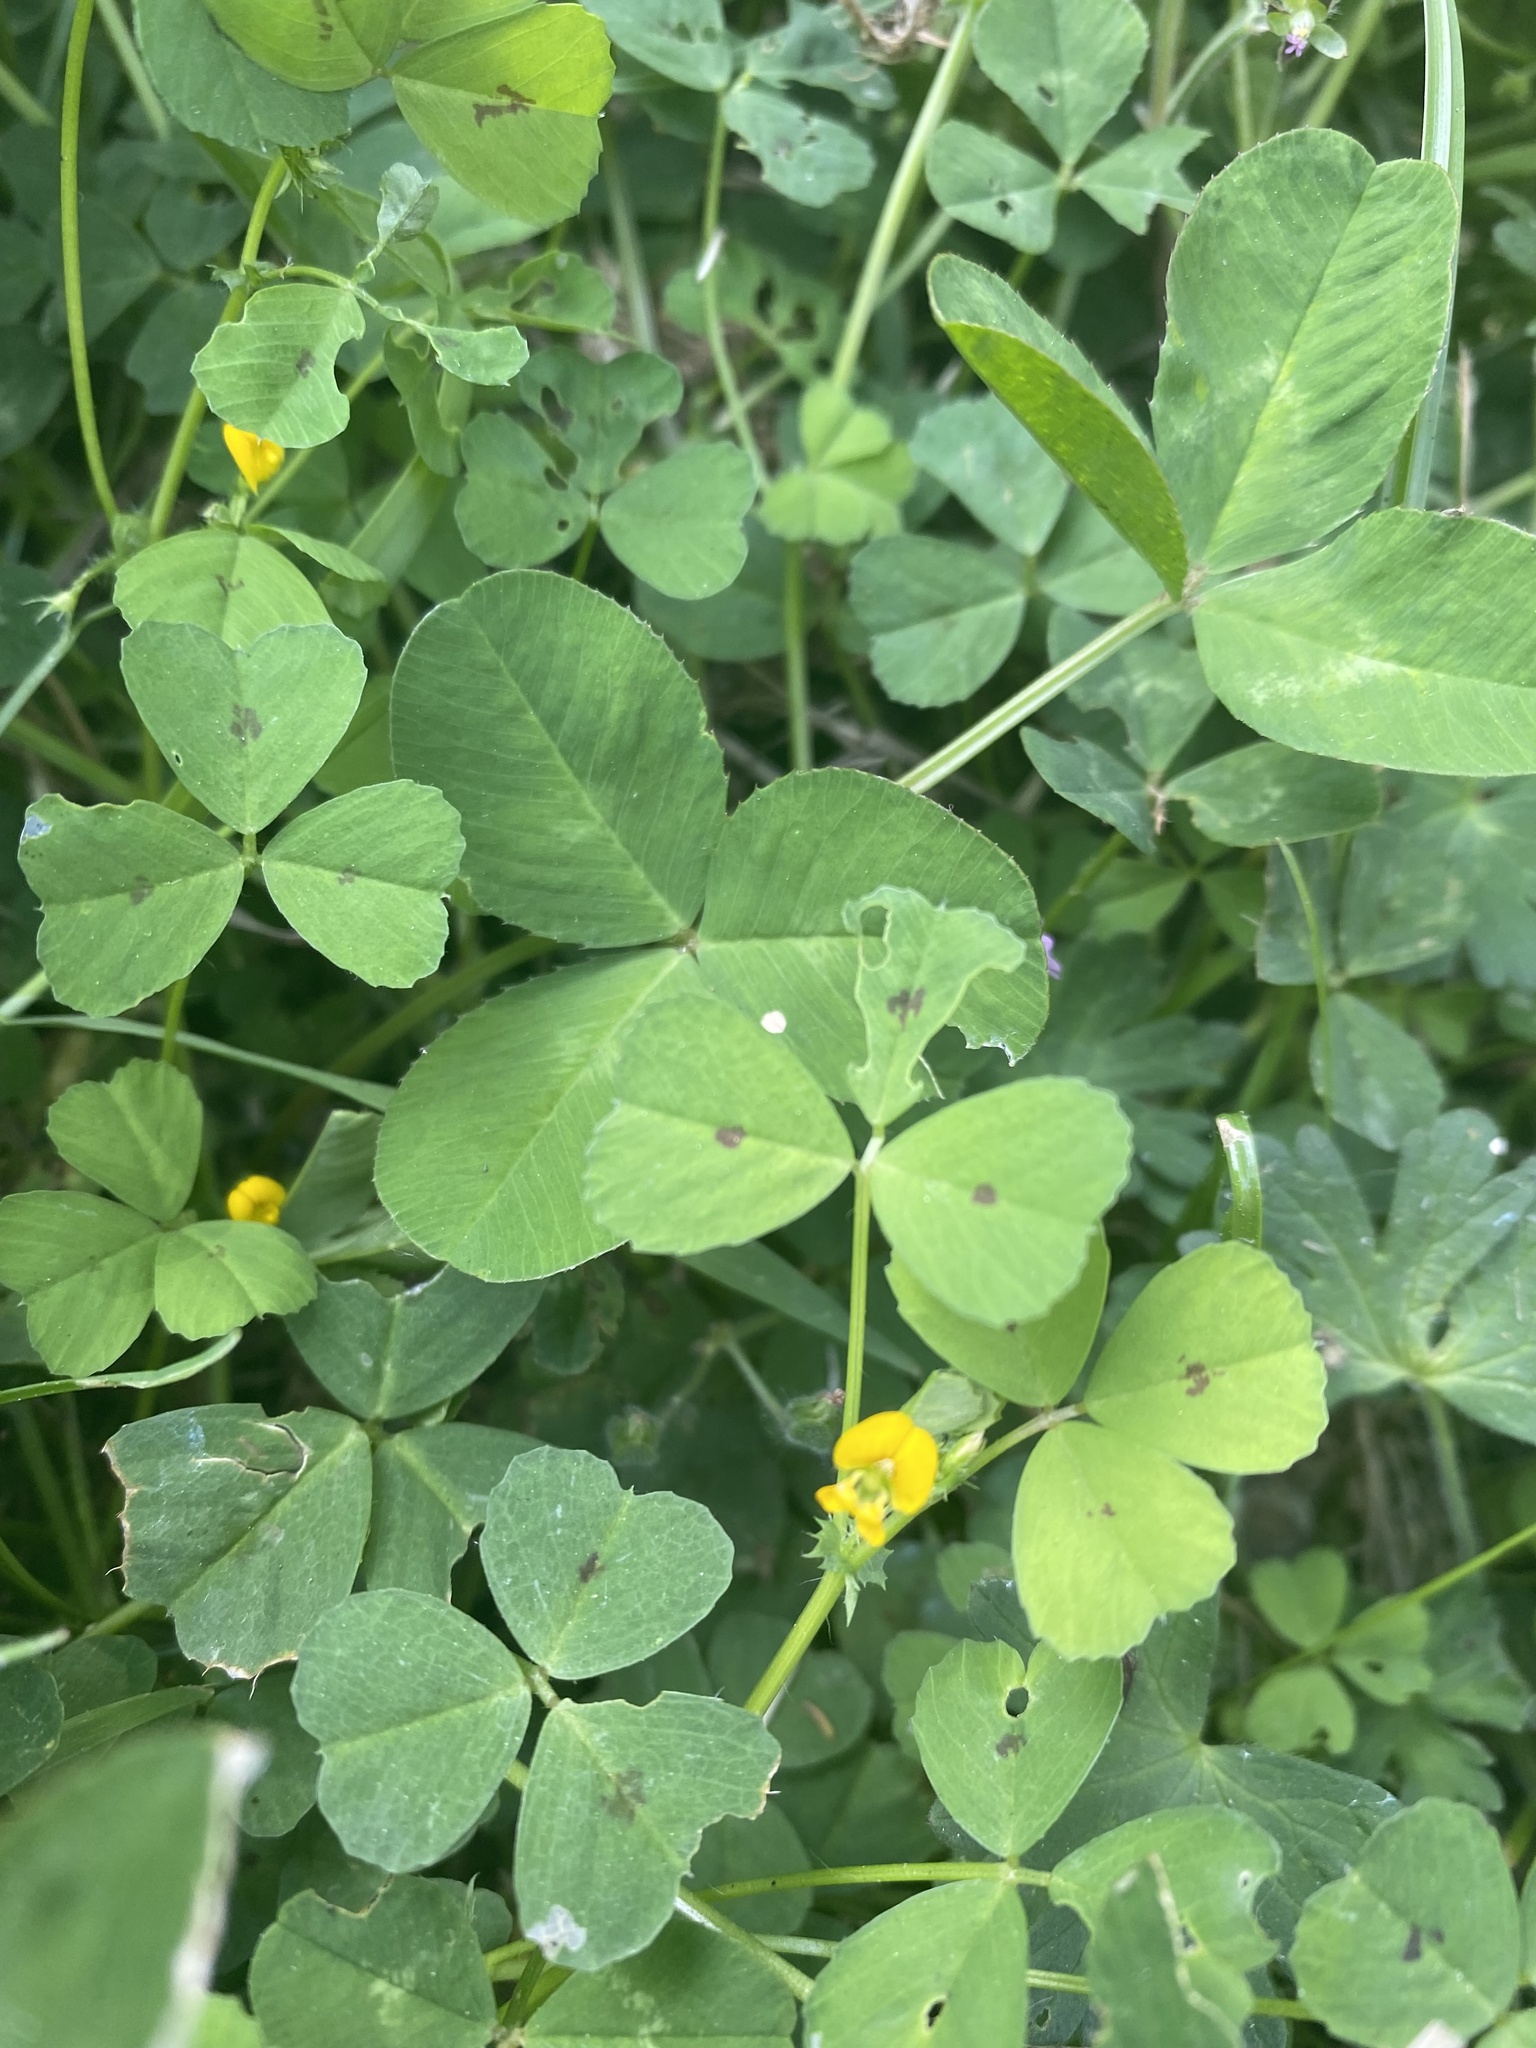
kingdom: Plantae
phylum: Tracheophyta
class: Magnoliopsida
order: Fabales
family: Fabaceae
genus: Medicago
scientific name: Medicago arabica
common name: Spotted medick
